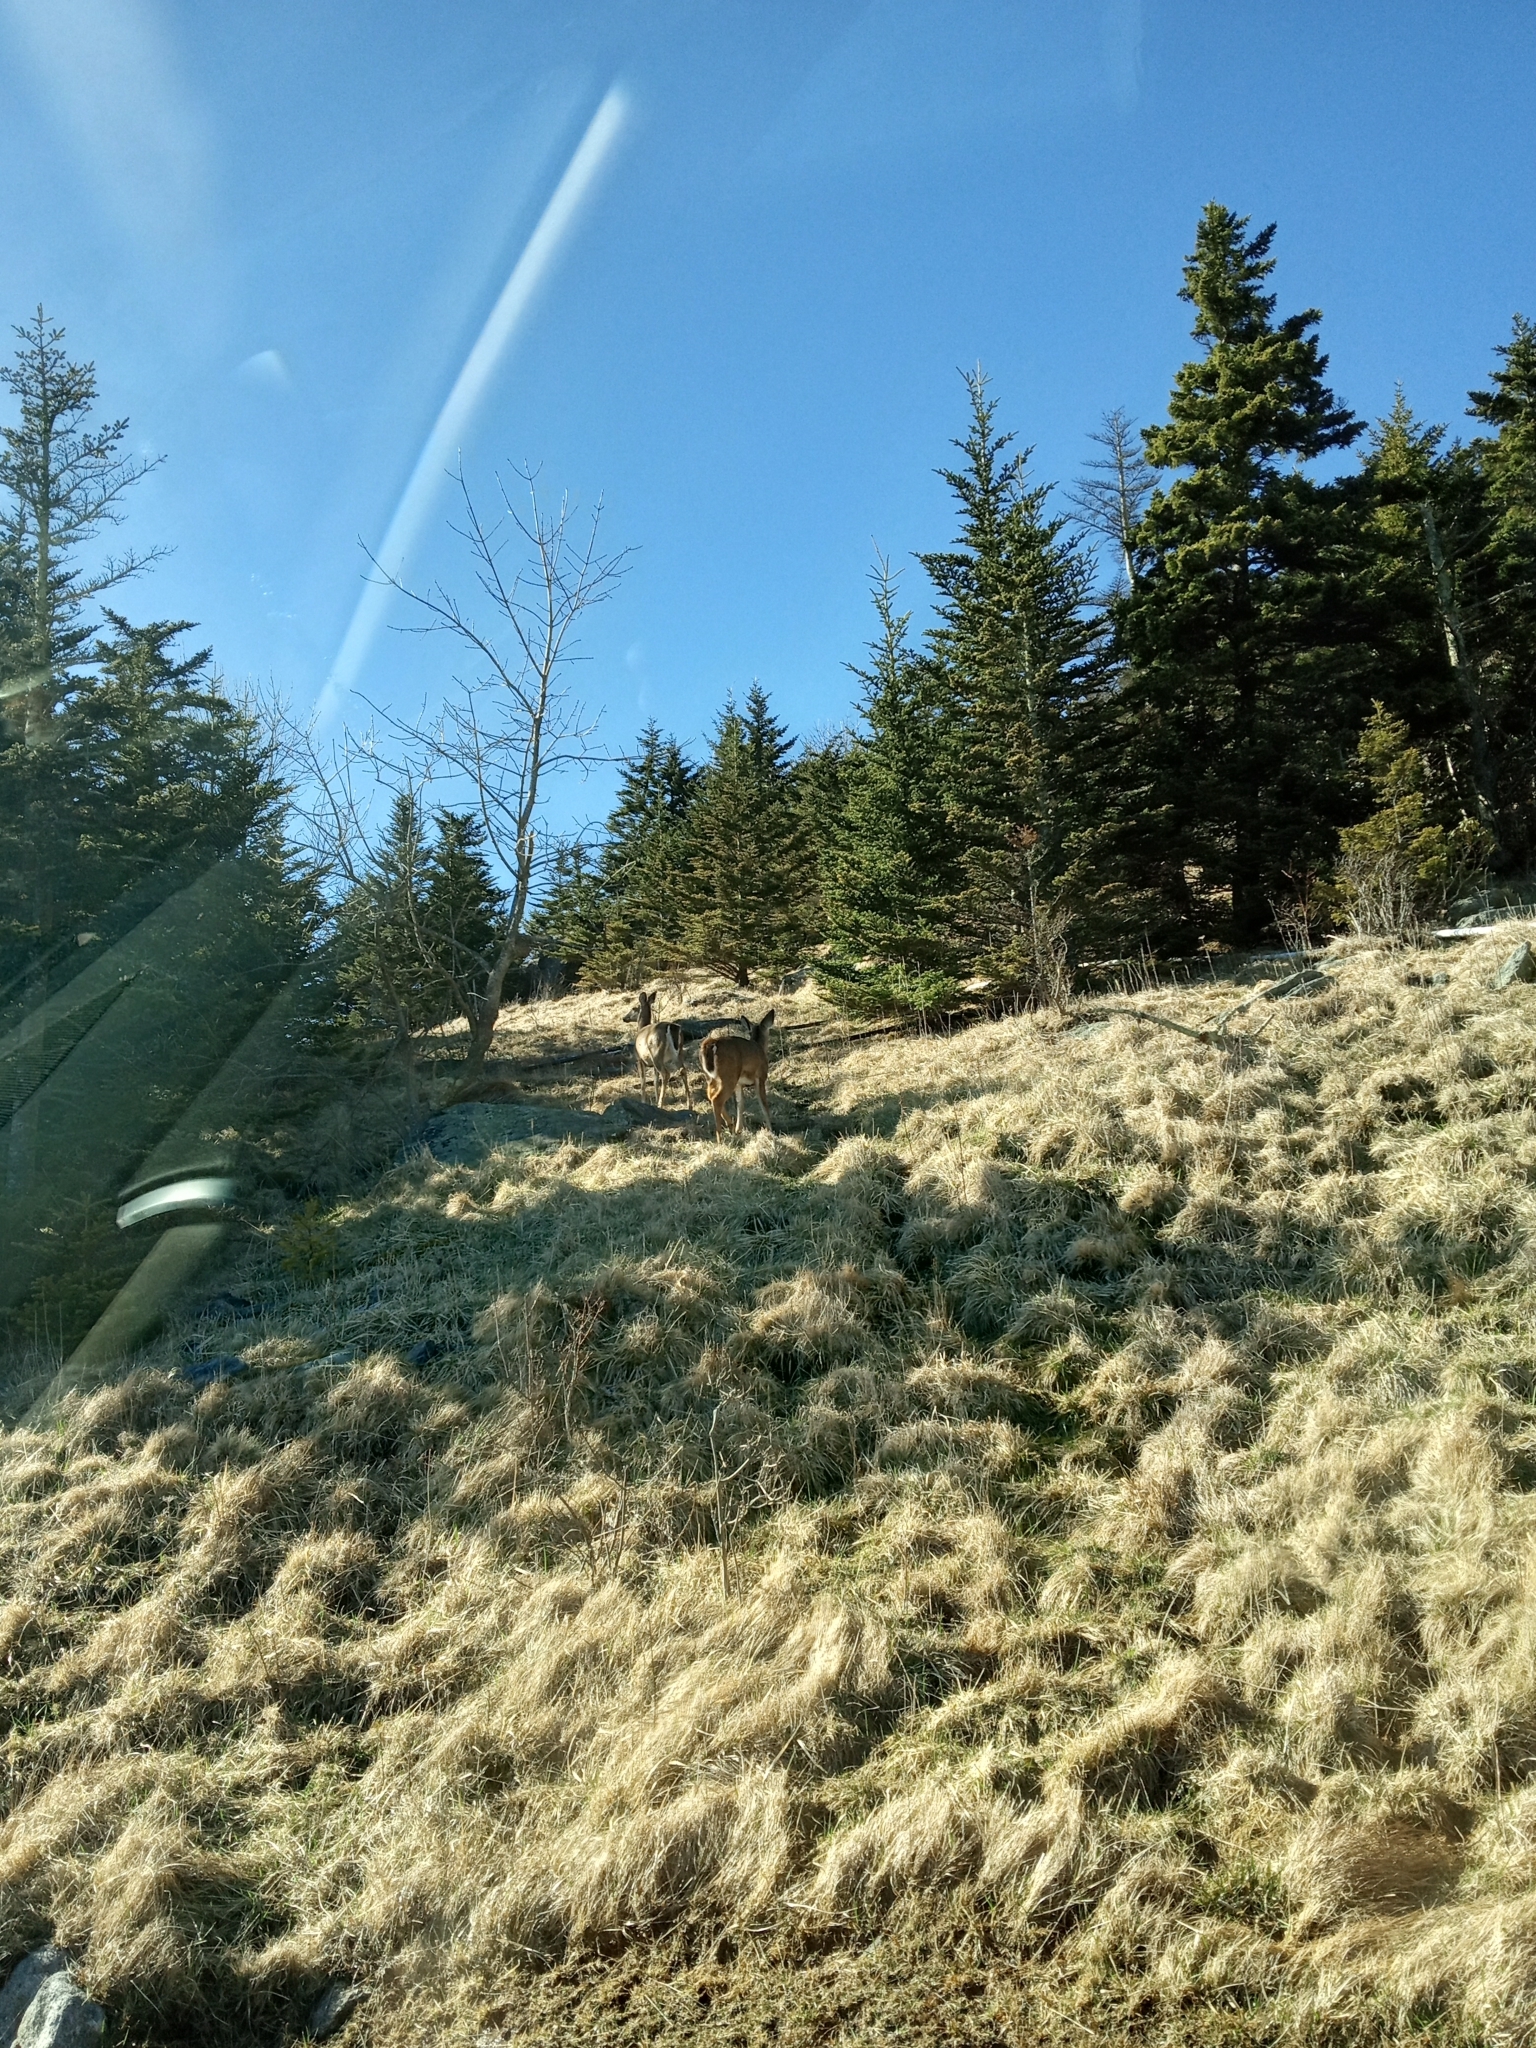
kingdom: Animalia
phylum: Chordata
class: Mammalia
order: Artiodactyla
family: Cervidae
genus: Odocoileus
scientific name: Odocoileus virginianus
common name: White-tailed deer
